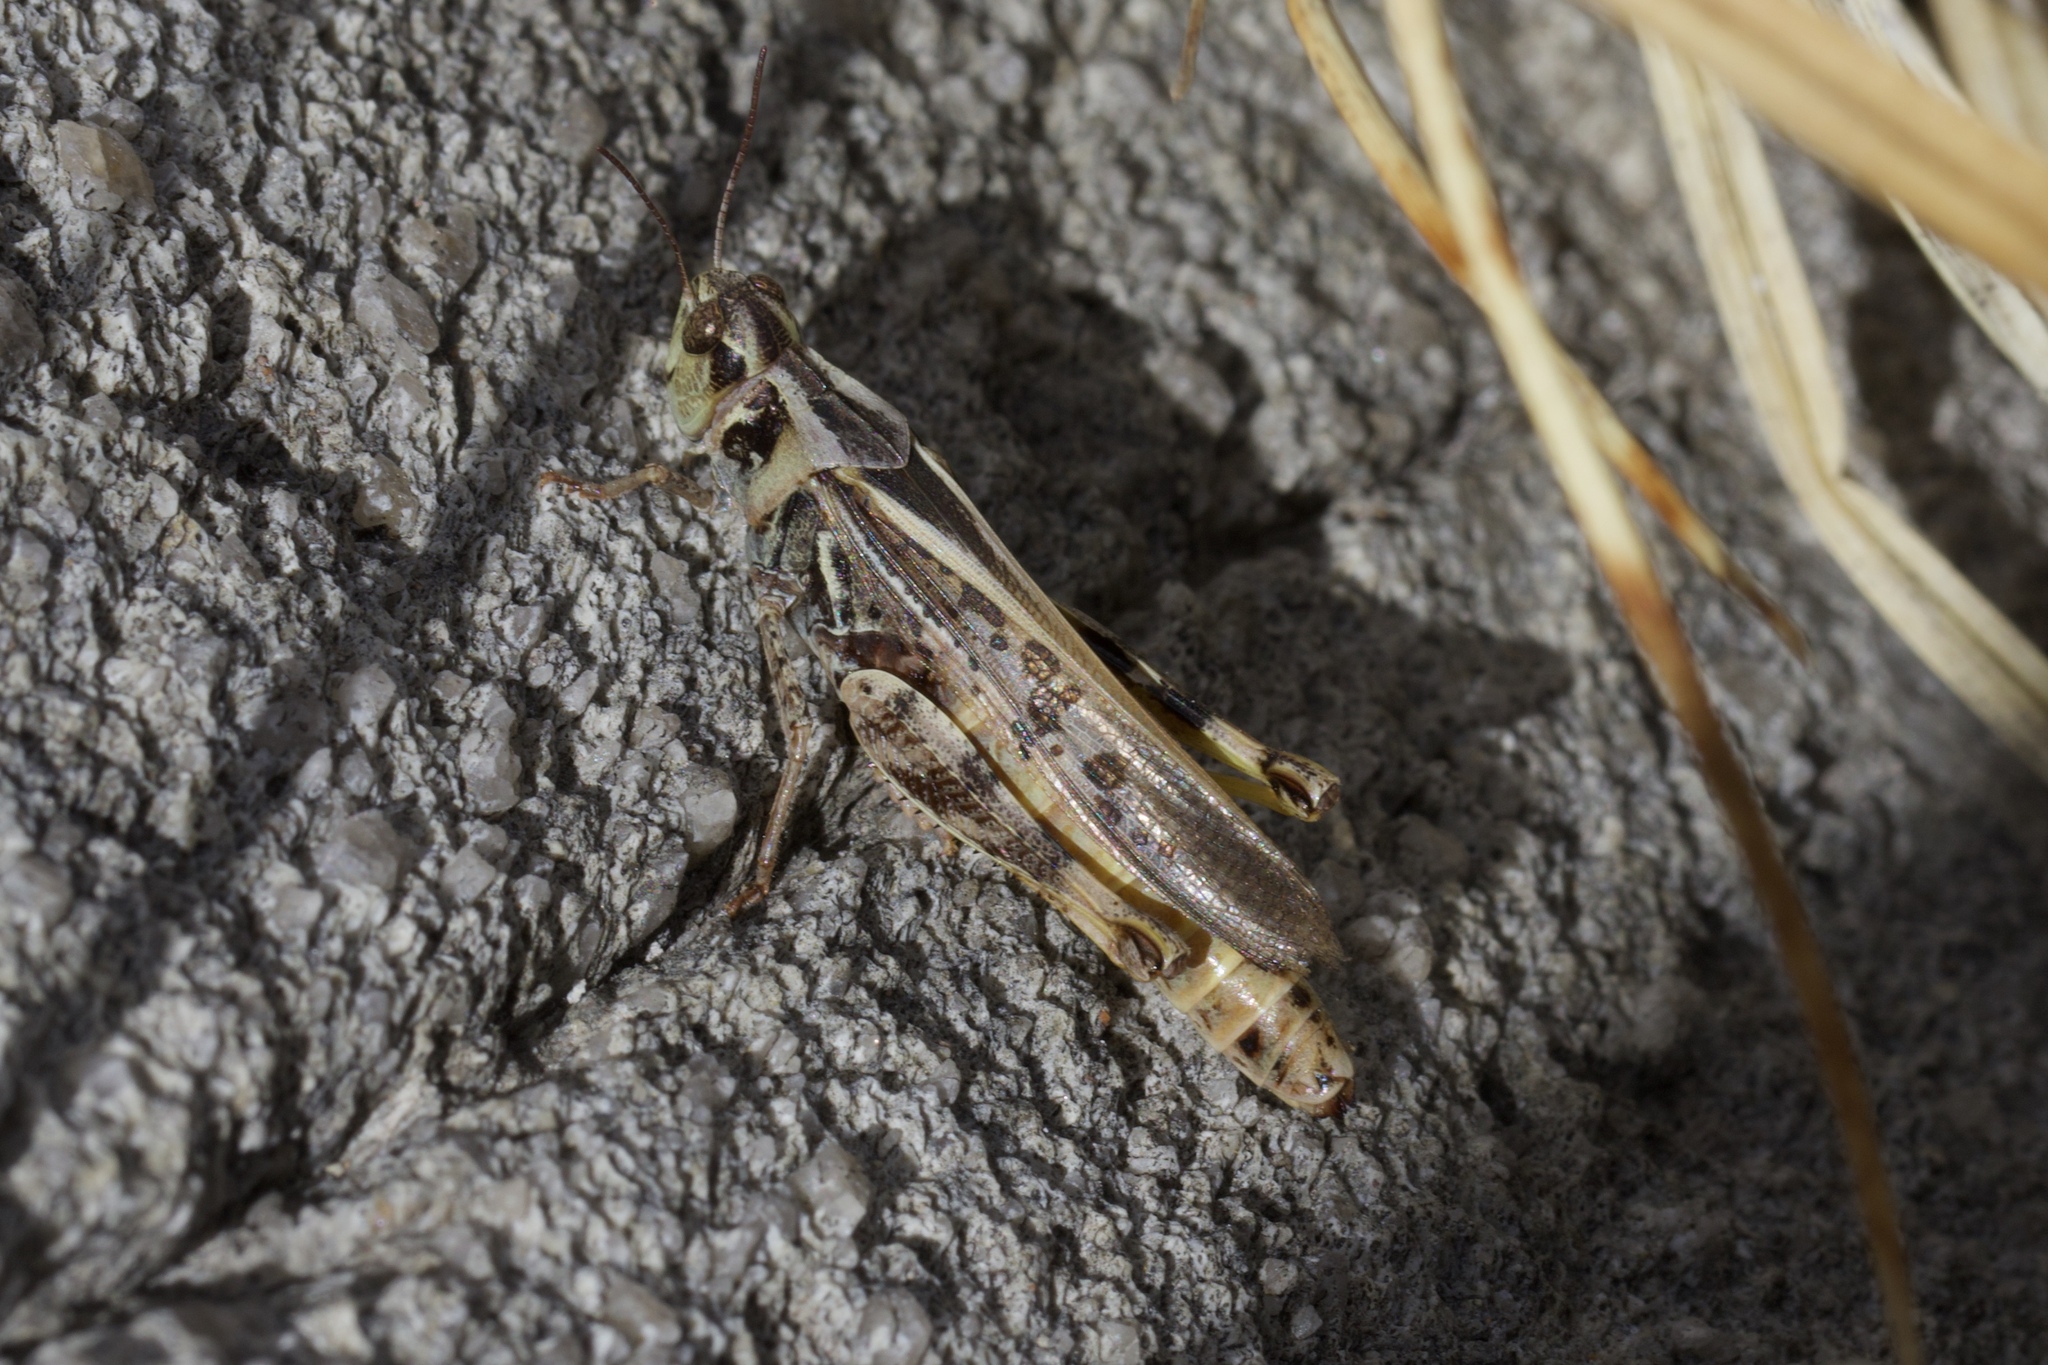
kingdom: Animalia
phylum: Arthropoda
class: Insecta
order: Orthoptera
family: Acrididae
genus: Camnula
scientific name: Camnula pellucida
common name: Clear-winged grasshopper
